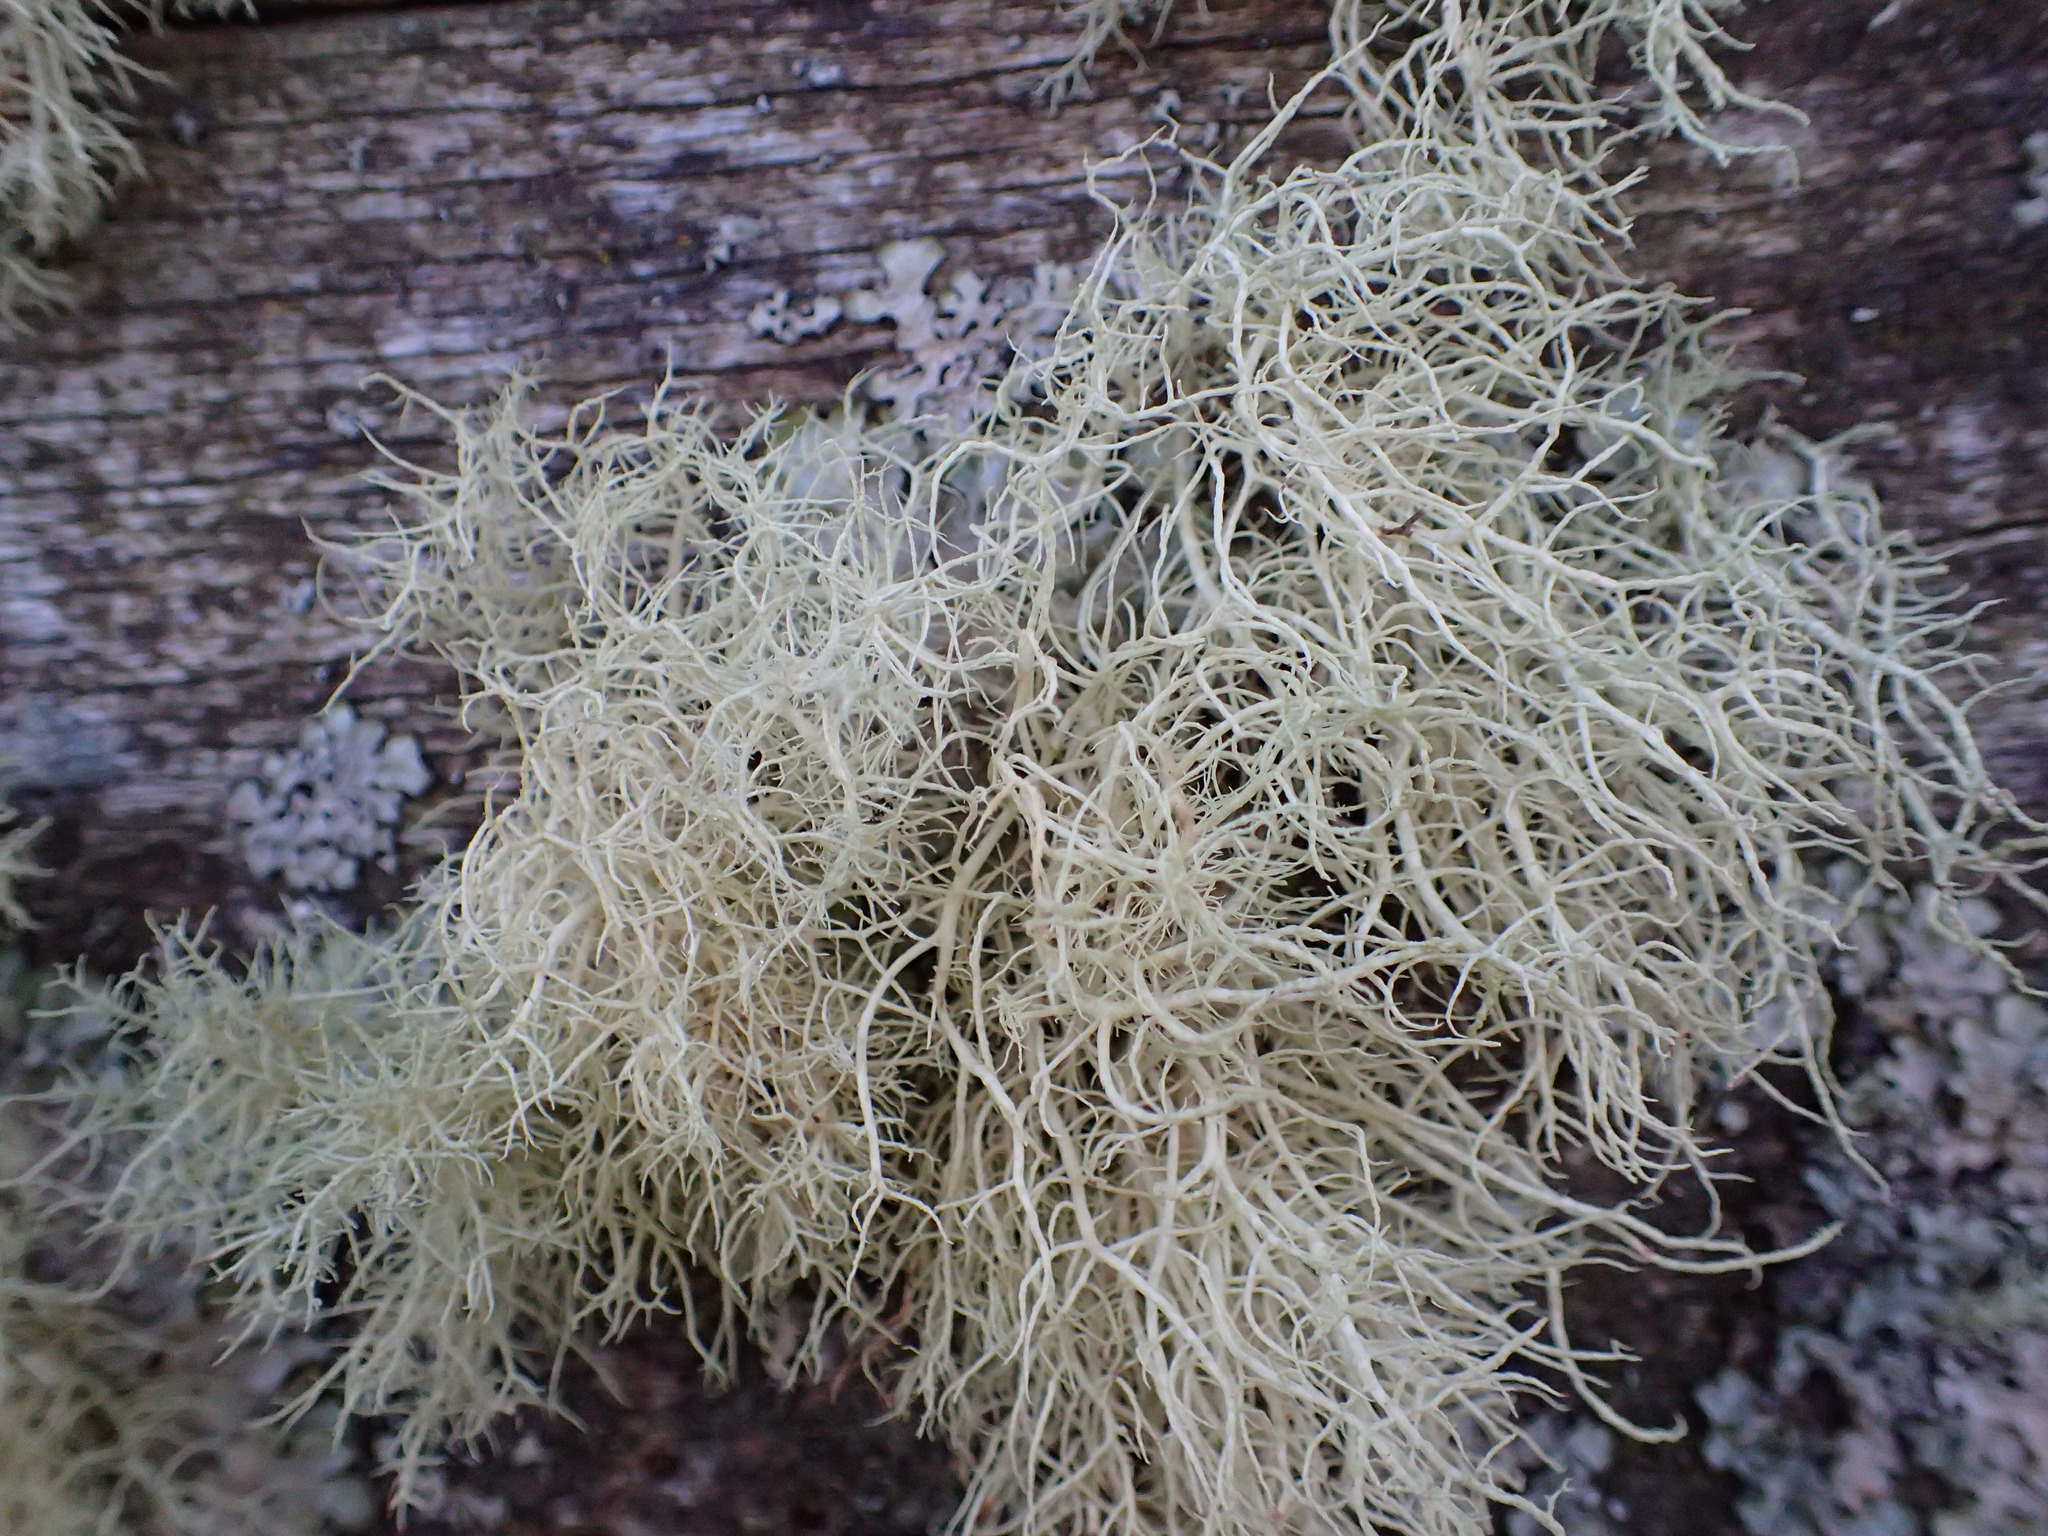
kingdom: Fungi
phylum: Ascomycota
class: Lecanoromycetes
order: Lecanorales
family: Parmeliaceae
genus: Usnea
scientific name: Usnea cornuta
